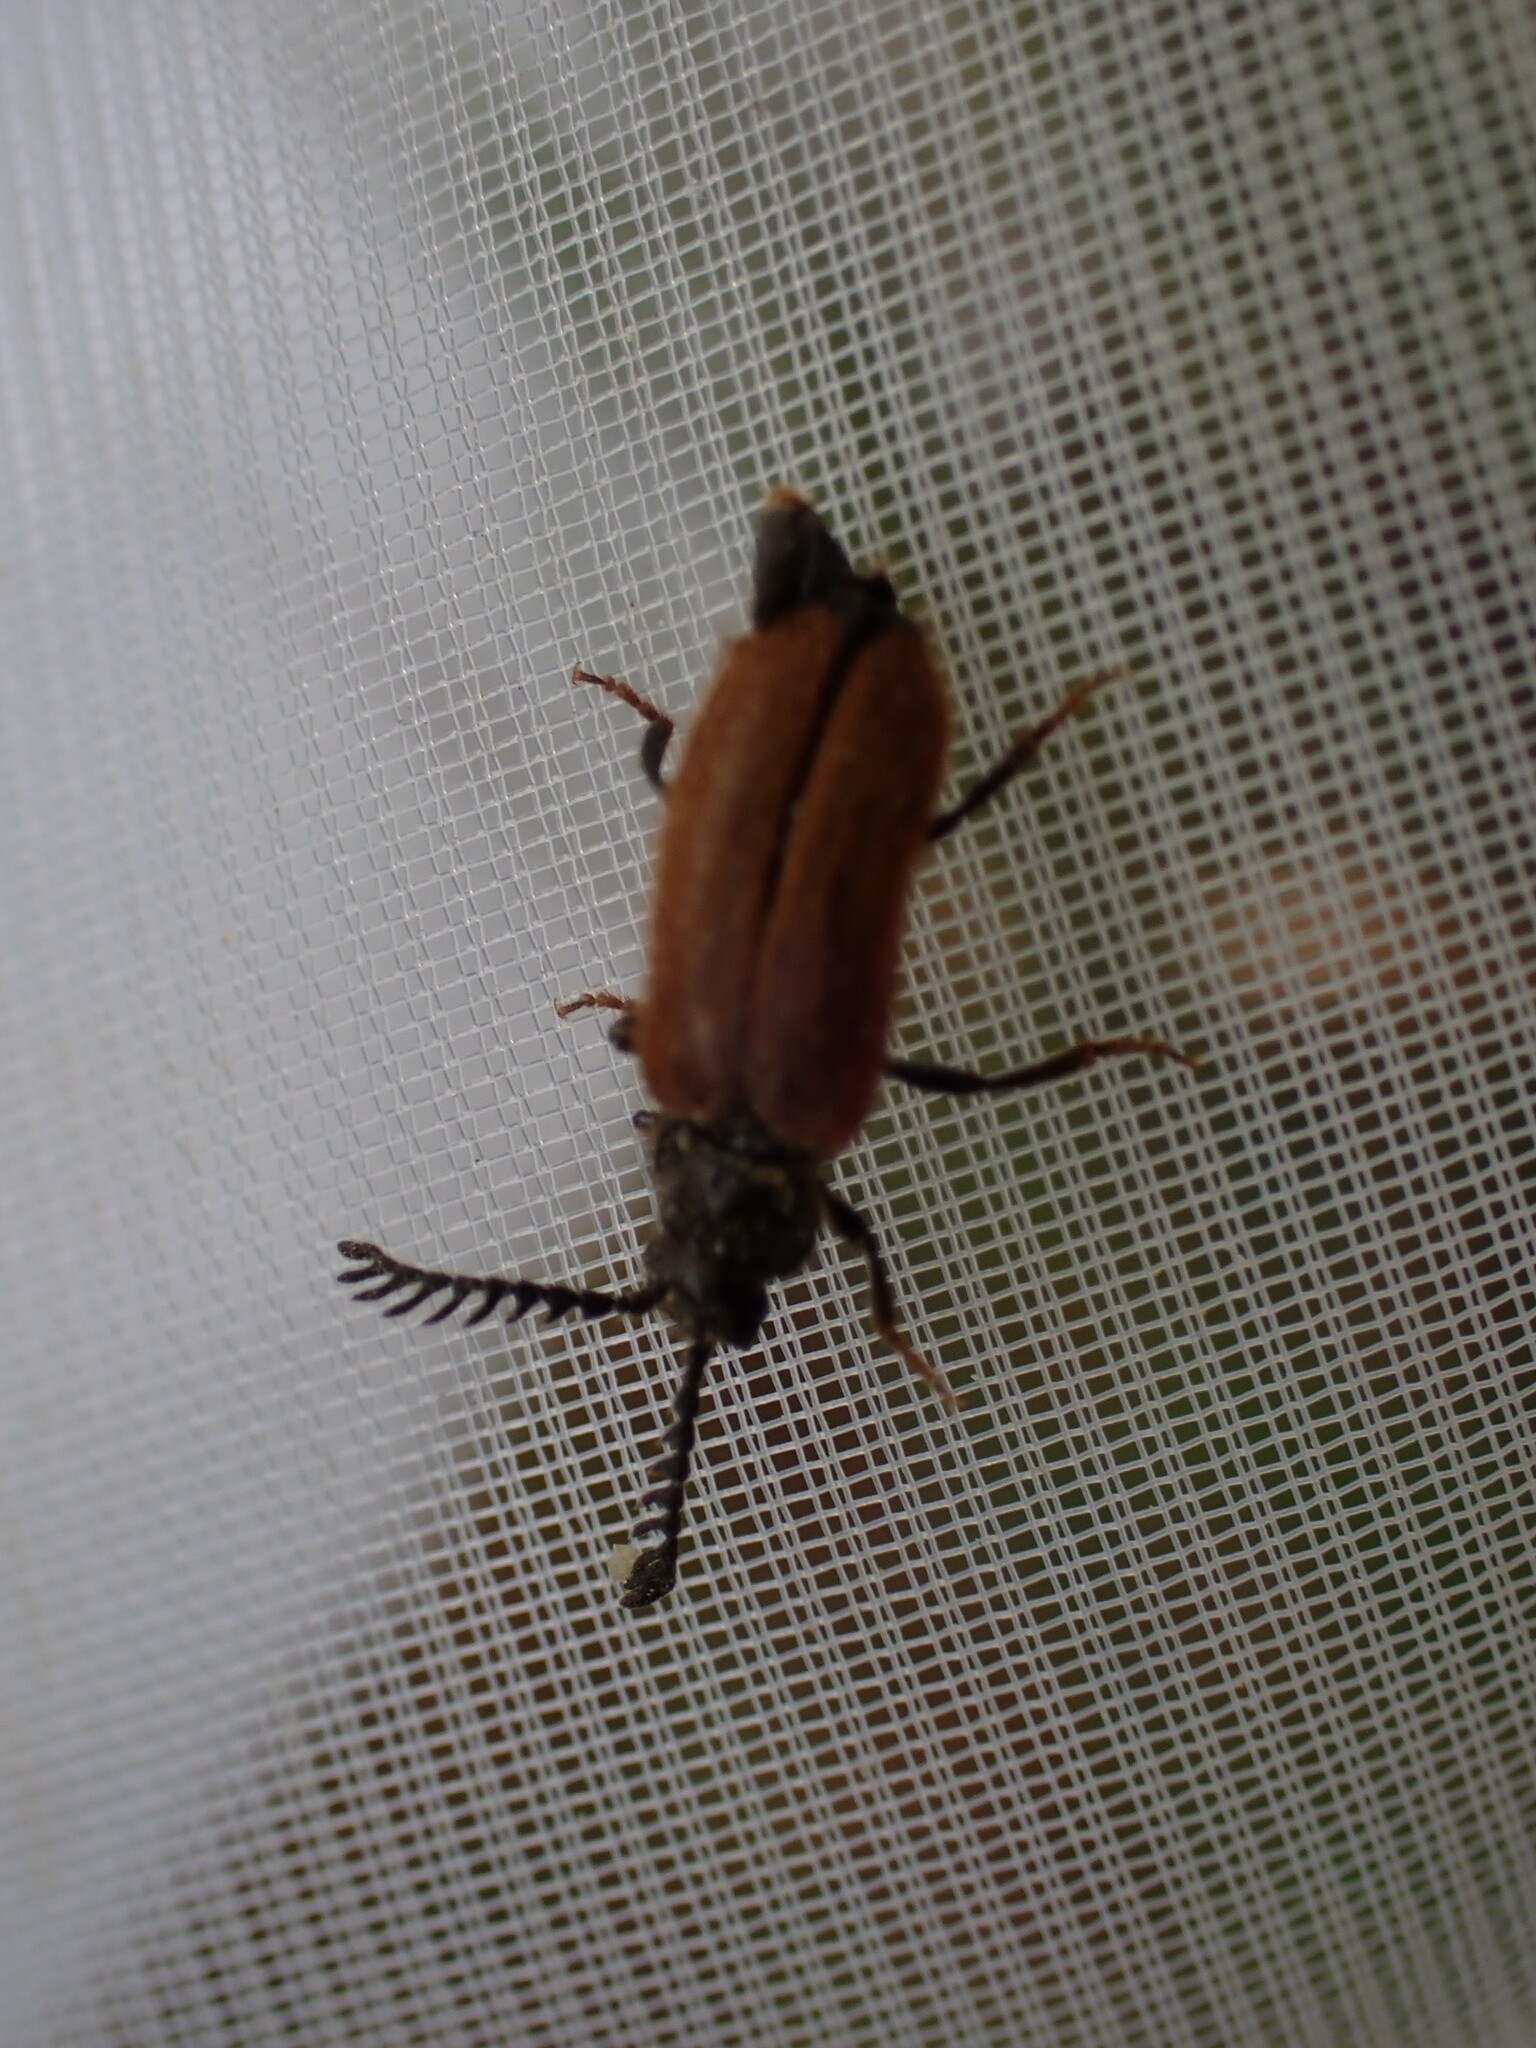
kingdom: Animalia
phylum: Arthropoda
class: Insecta
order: Coleoptera
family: Drilidae
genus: Drilus
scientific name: Drilus flavescens
